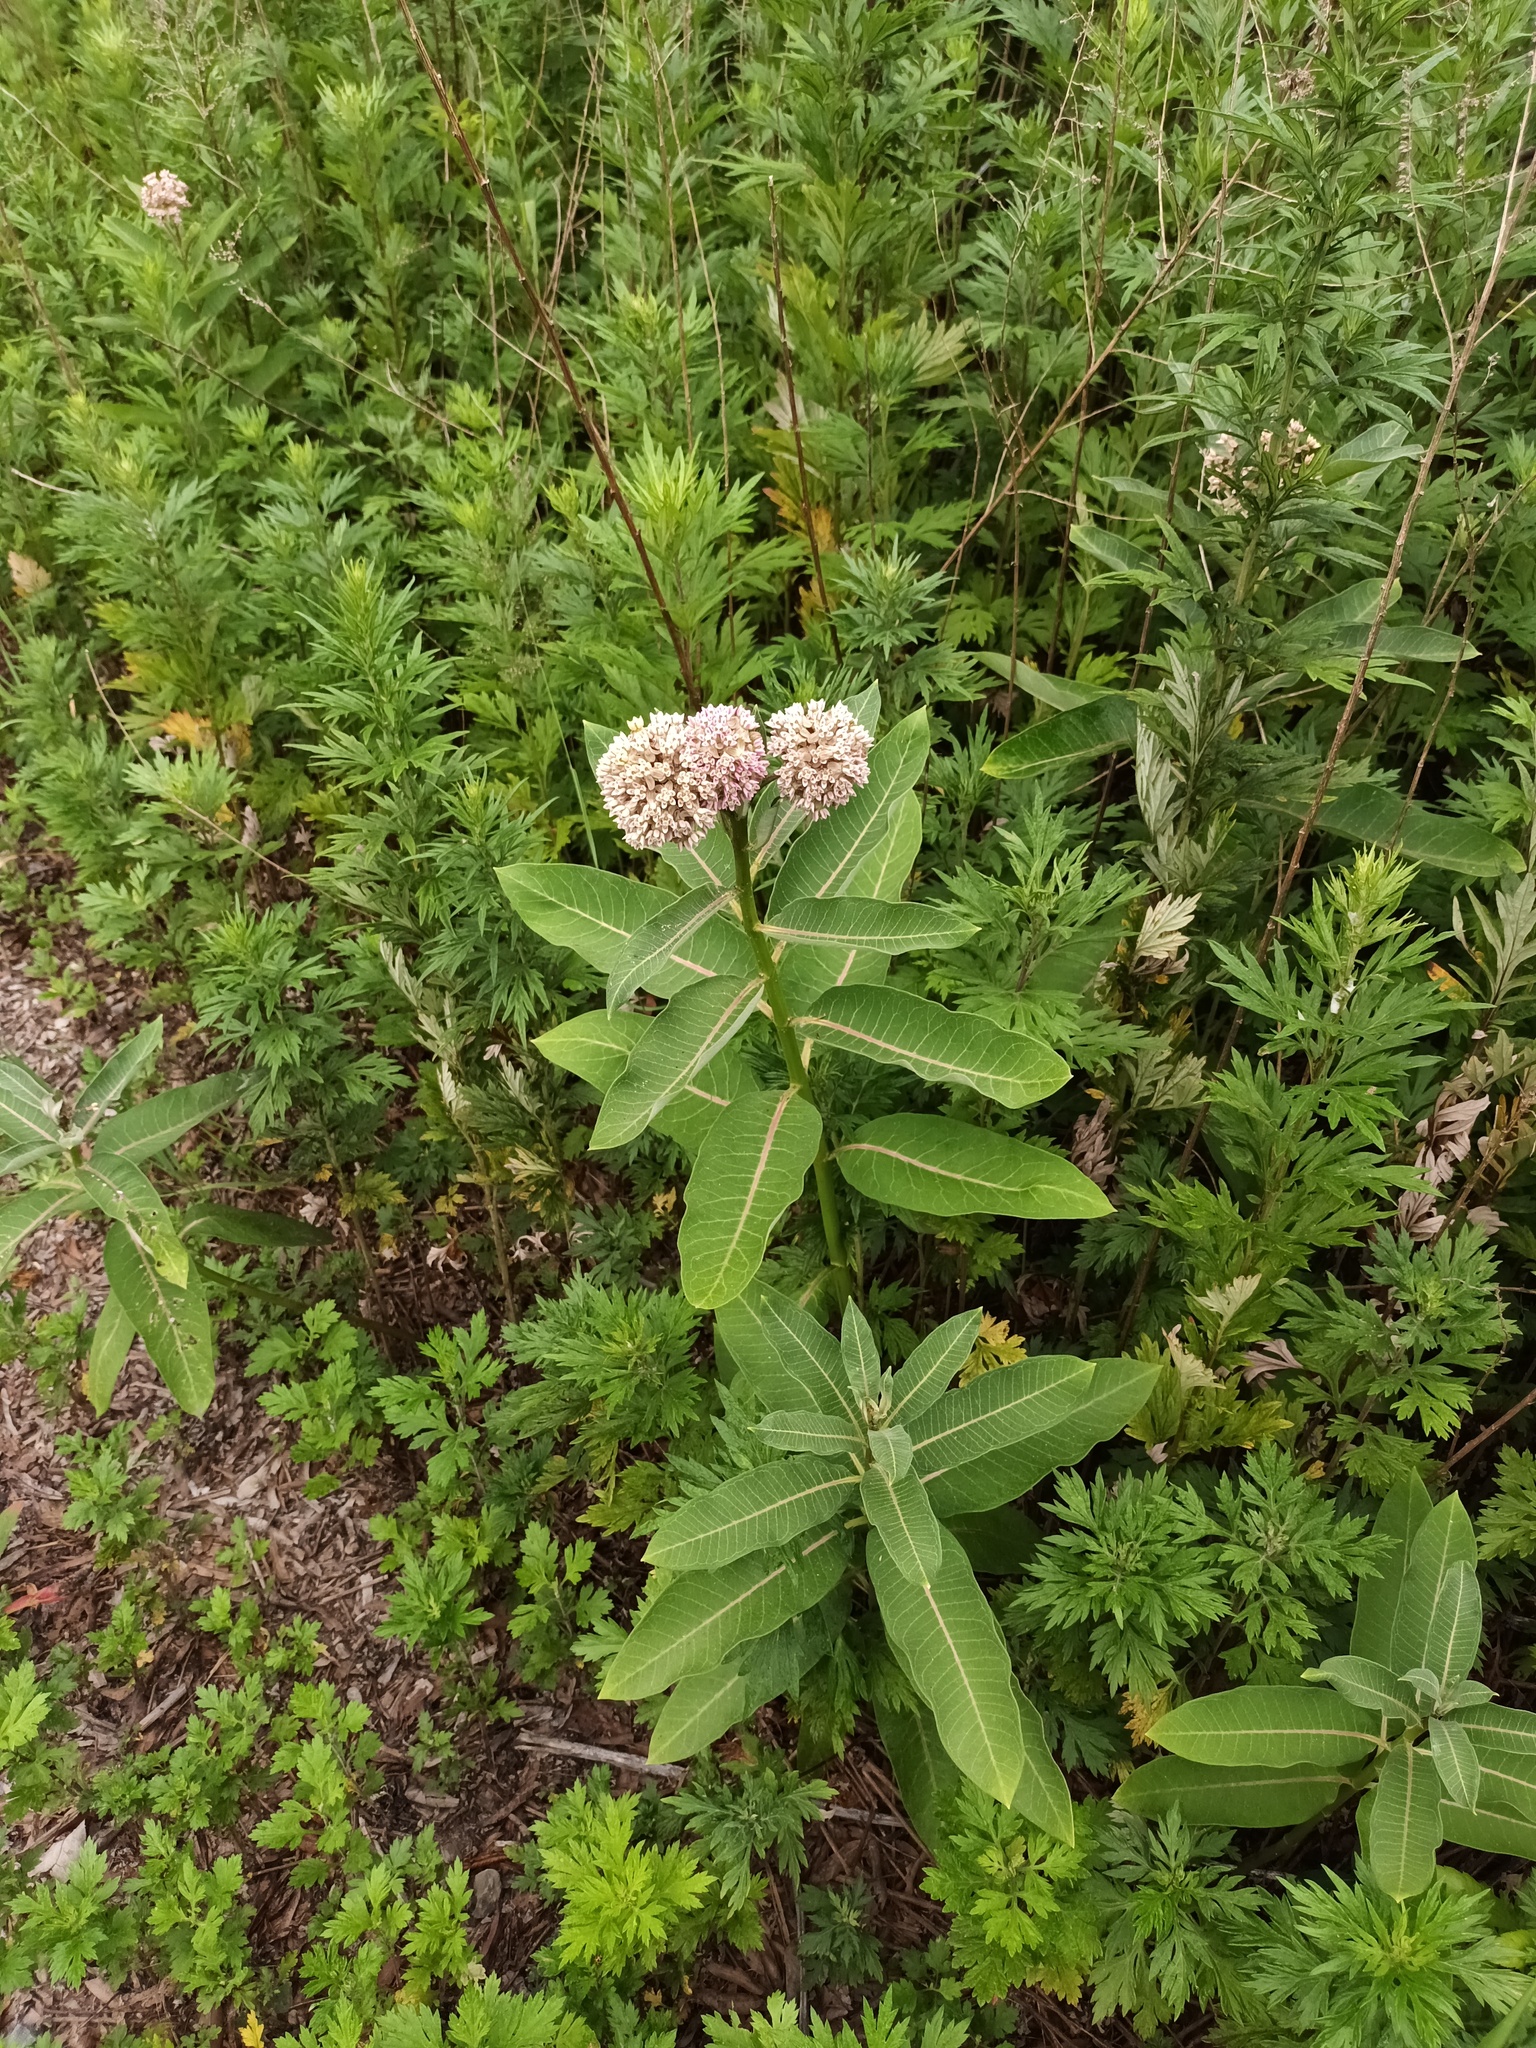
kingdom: Plantae
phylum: Tracheophyta
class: Magnoliopsida
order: Gentianales
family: Apocynaceae
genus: Asclepias
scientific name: Asclepias syriaca
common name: Common milkweed
